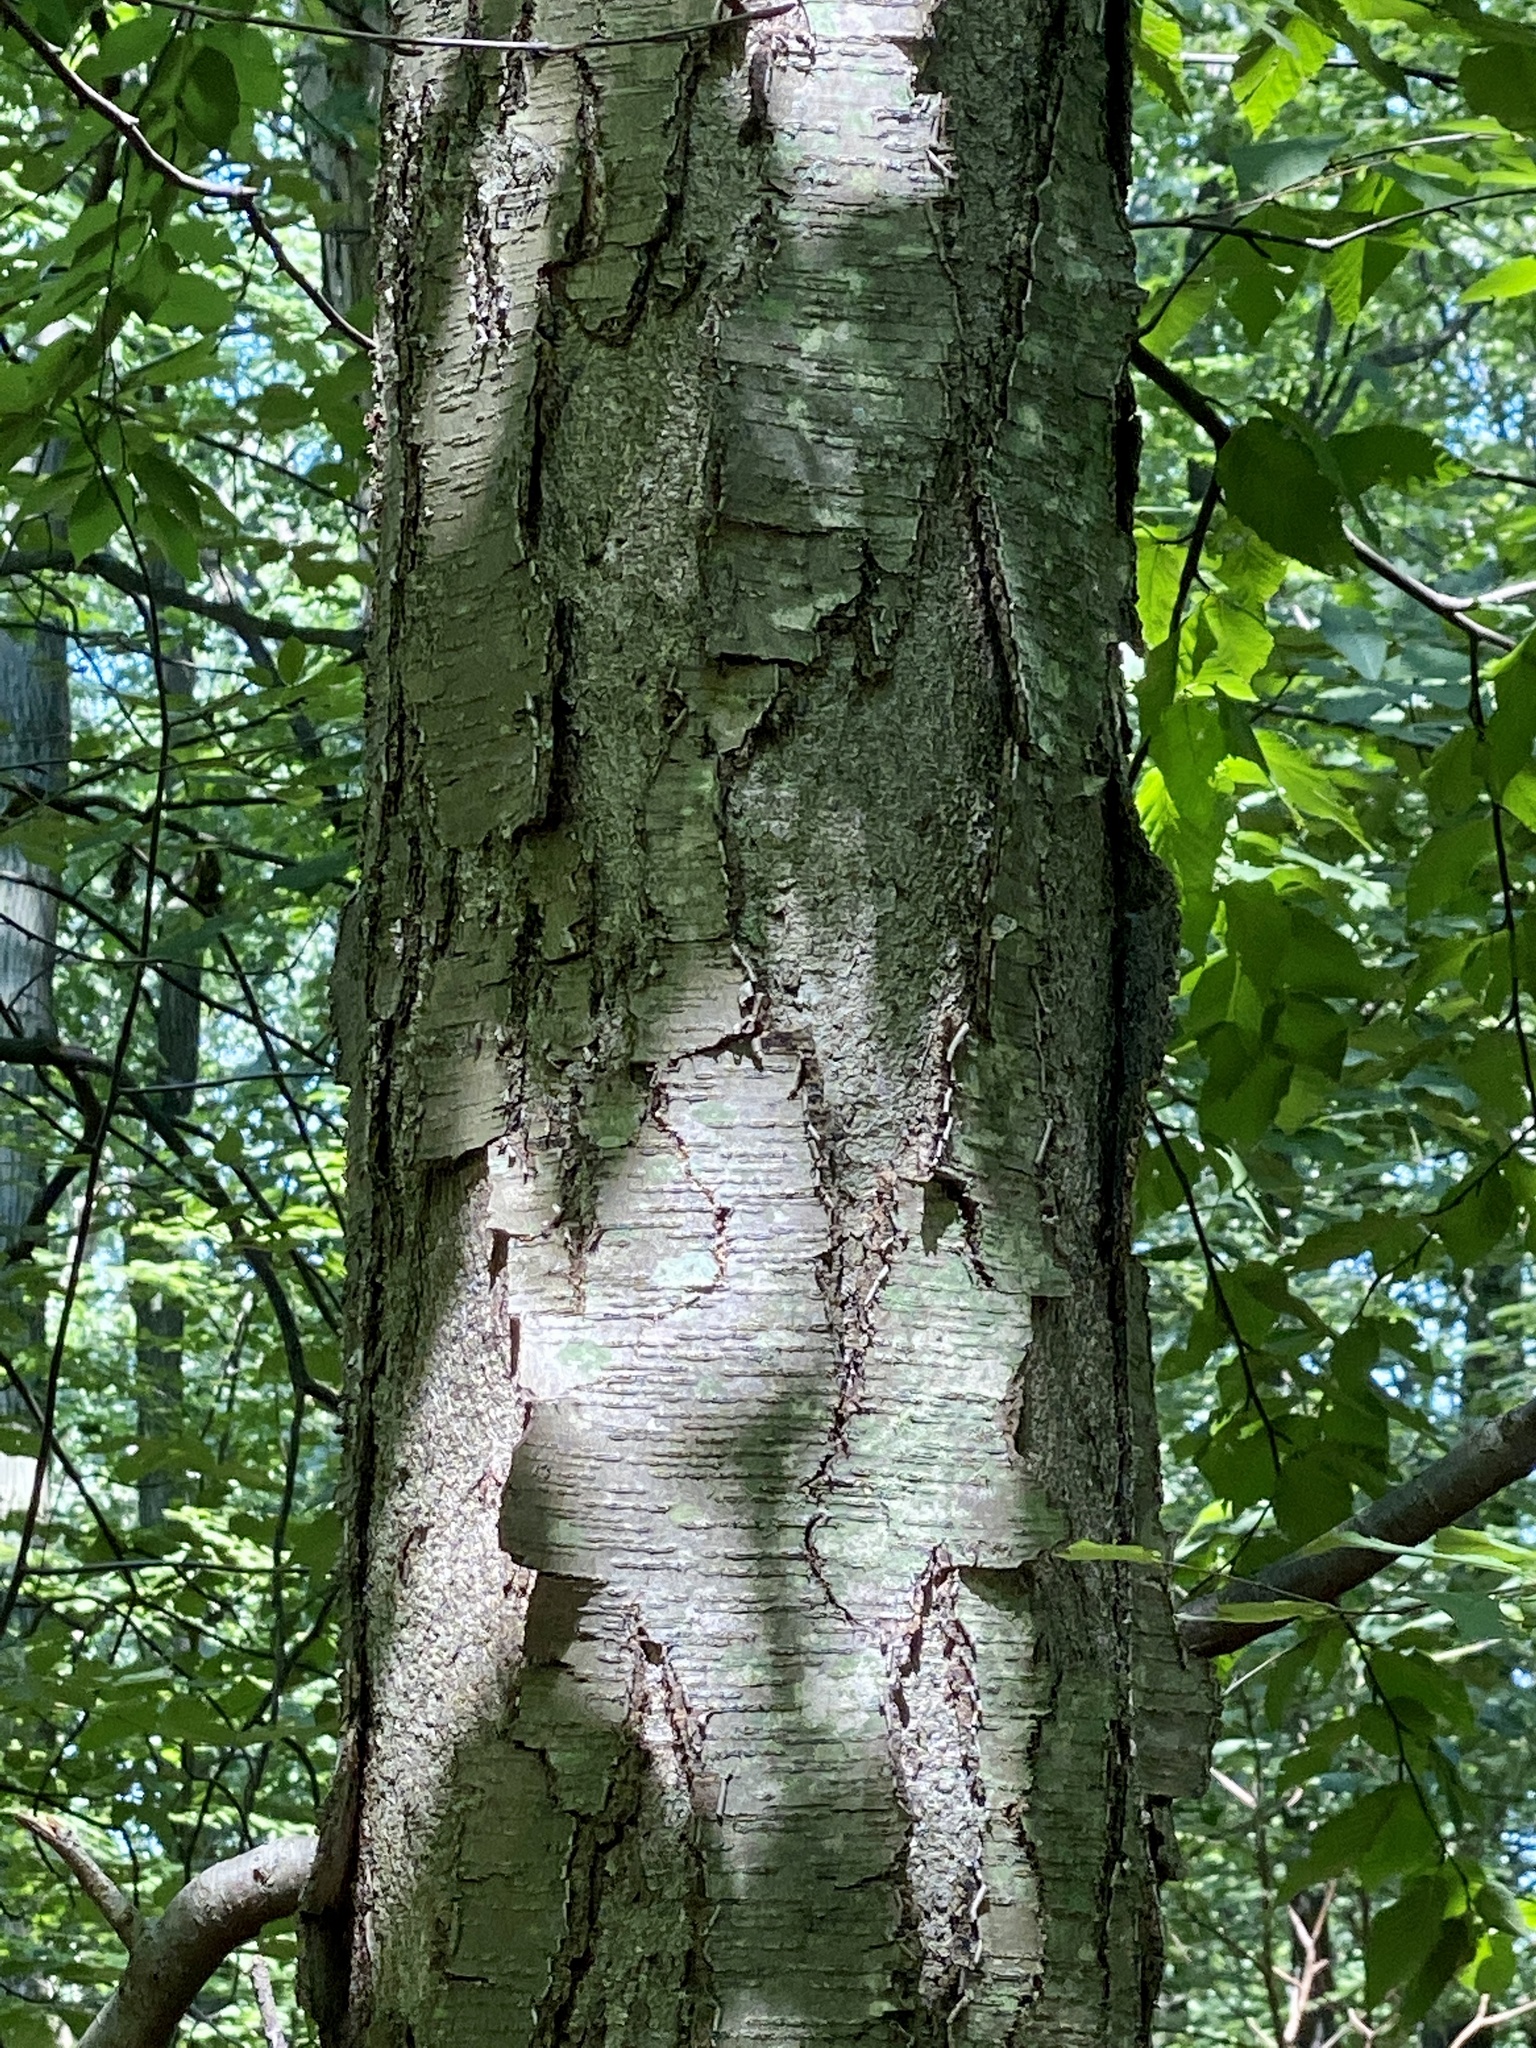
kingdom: Plantae
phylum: Tracheophyta
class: Magnoliopsida
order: Fagales
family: Betulaceae
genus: Betula
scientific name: Betula lenta
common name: Black birch
